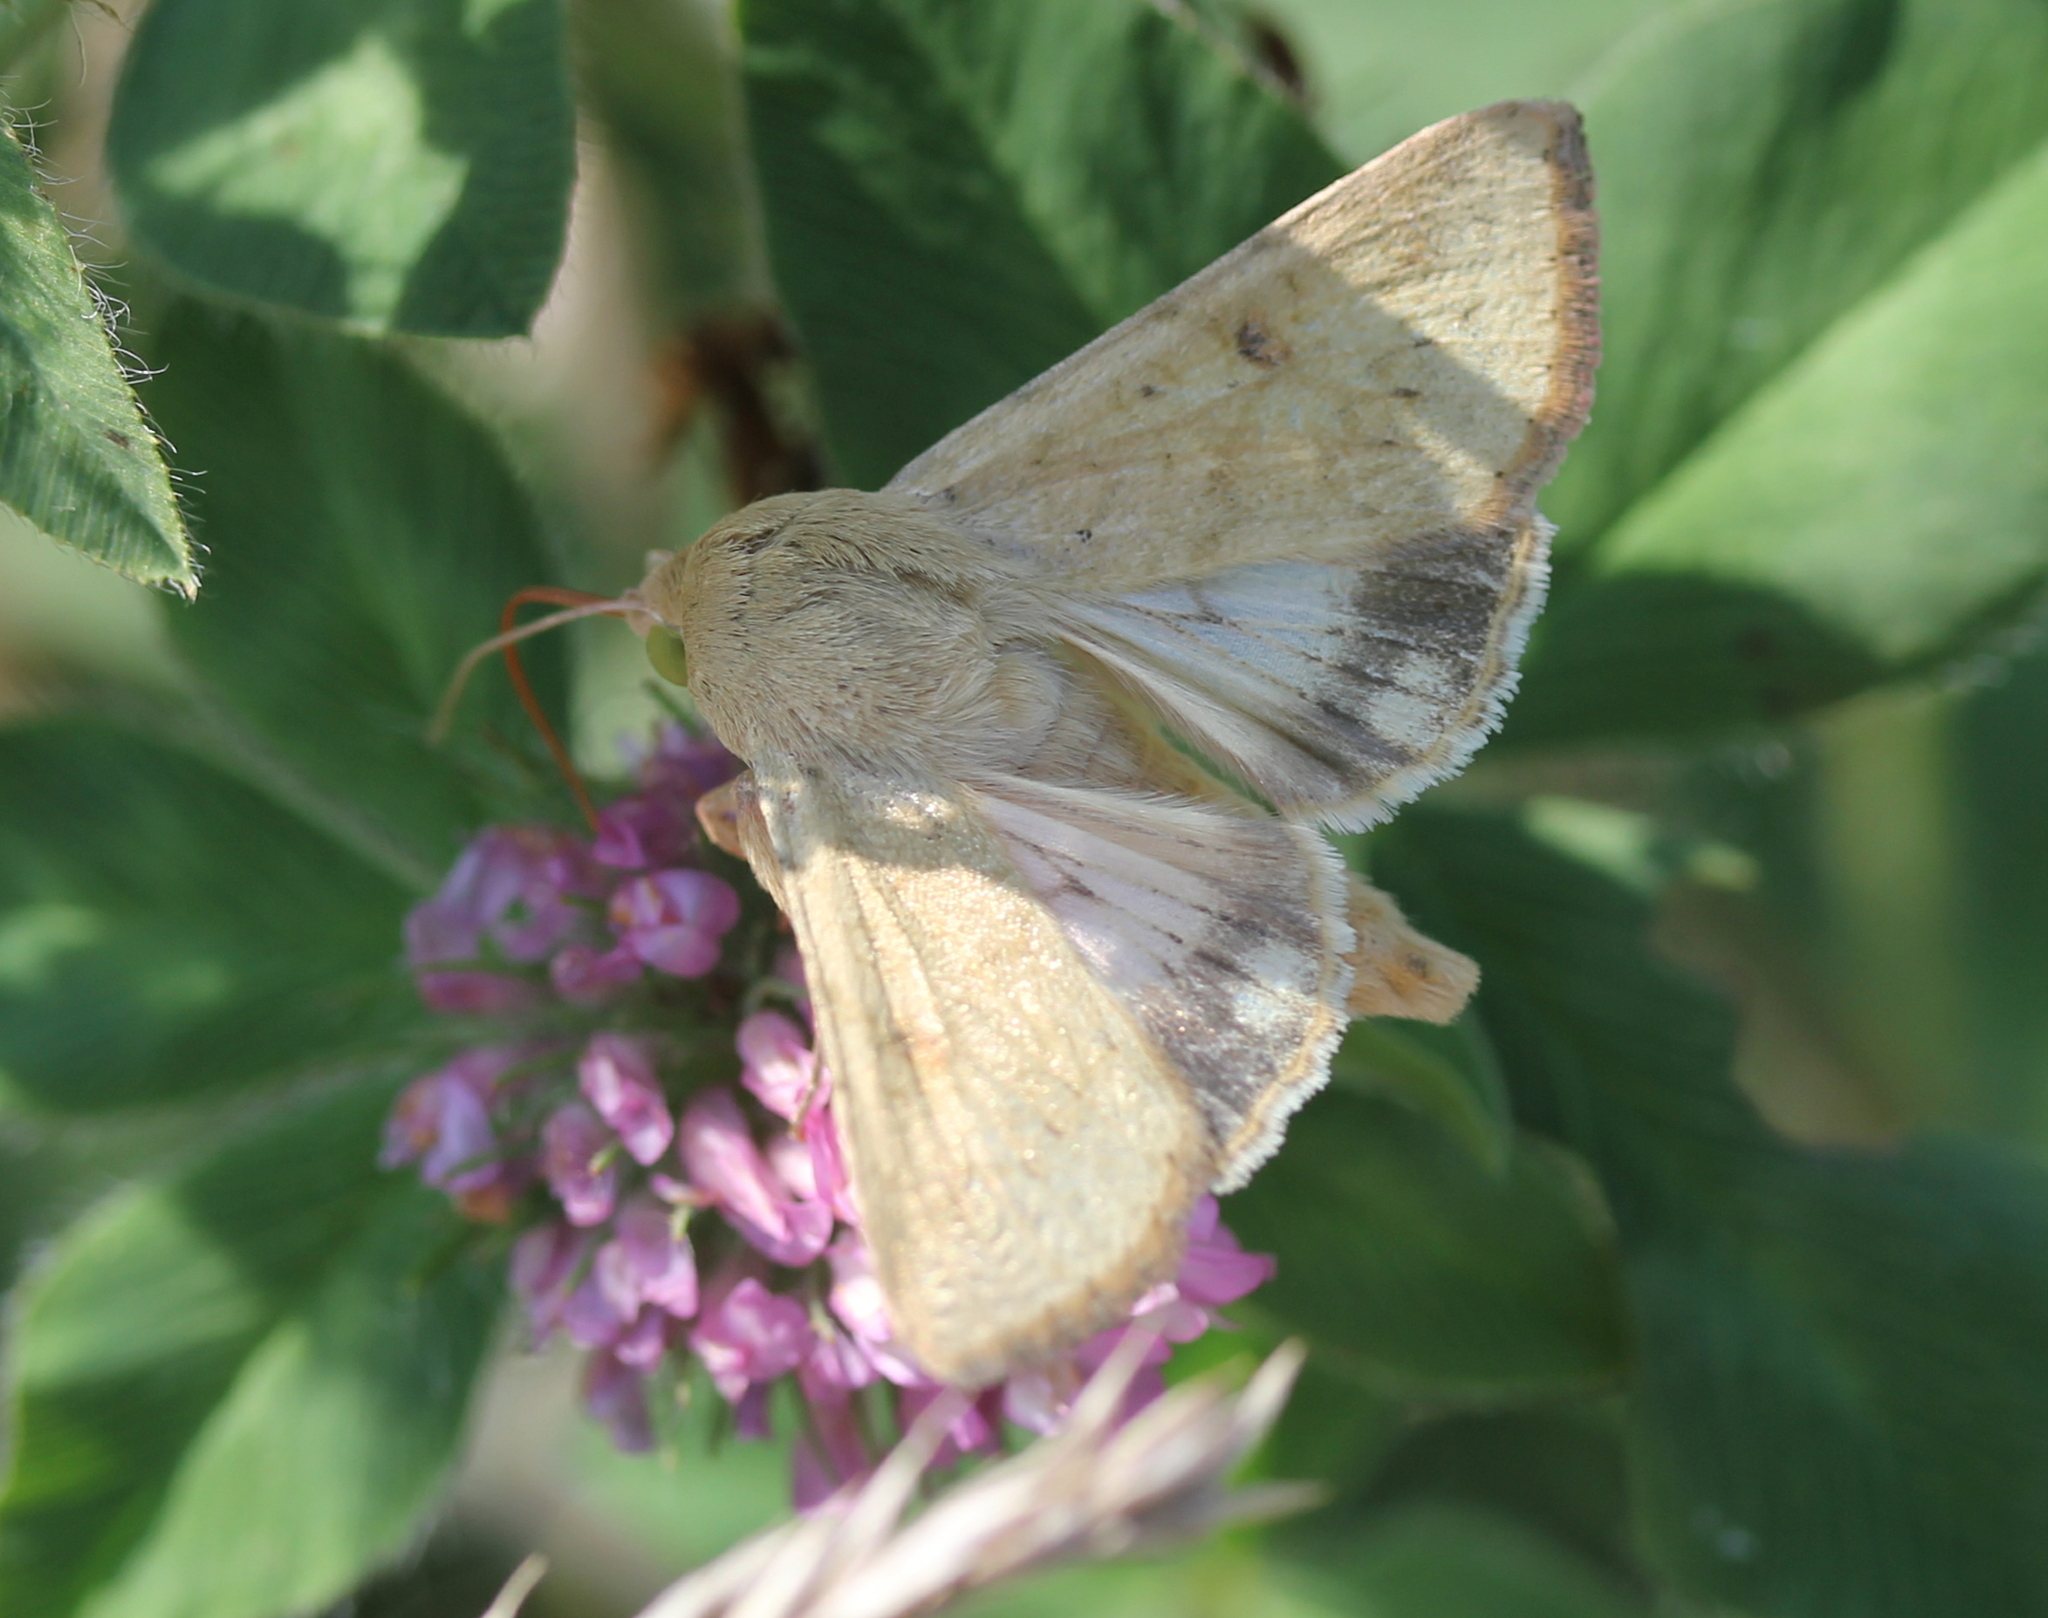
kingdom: Animalia
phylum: Arthropoda
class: Insecta
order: Lepidoptera
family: Noctuidae
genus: Helicoverpa
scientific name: Helicoverpa zea
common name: Bollworm
